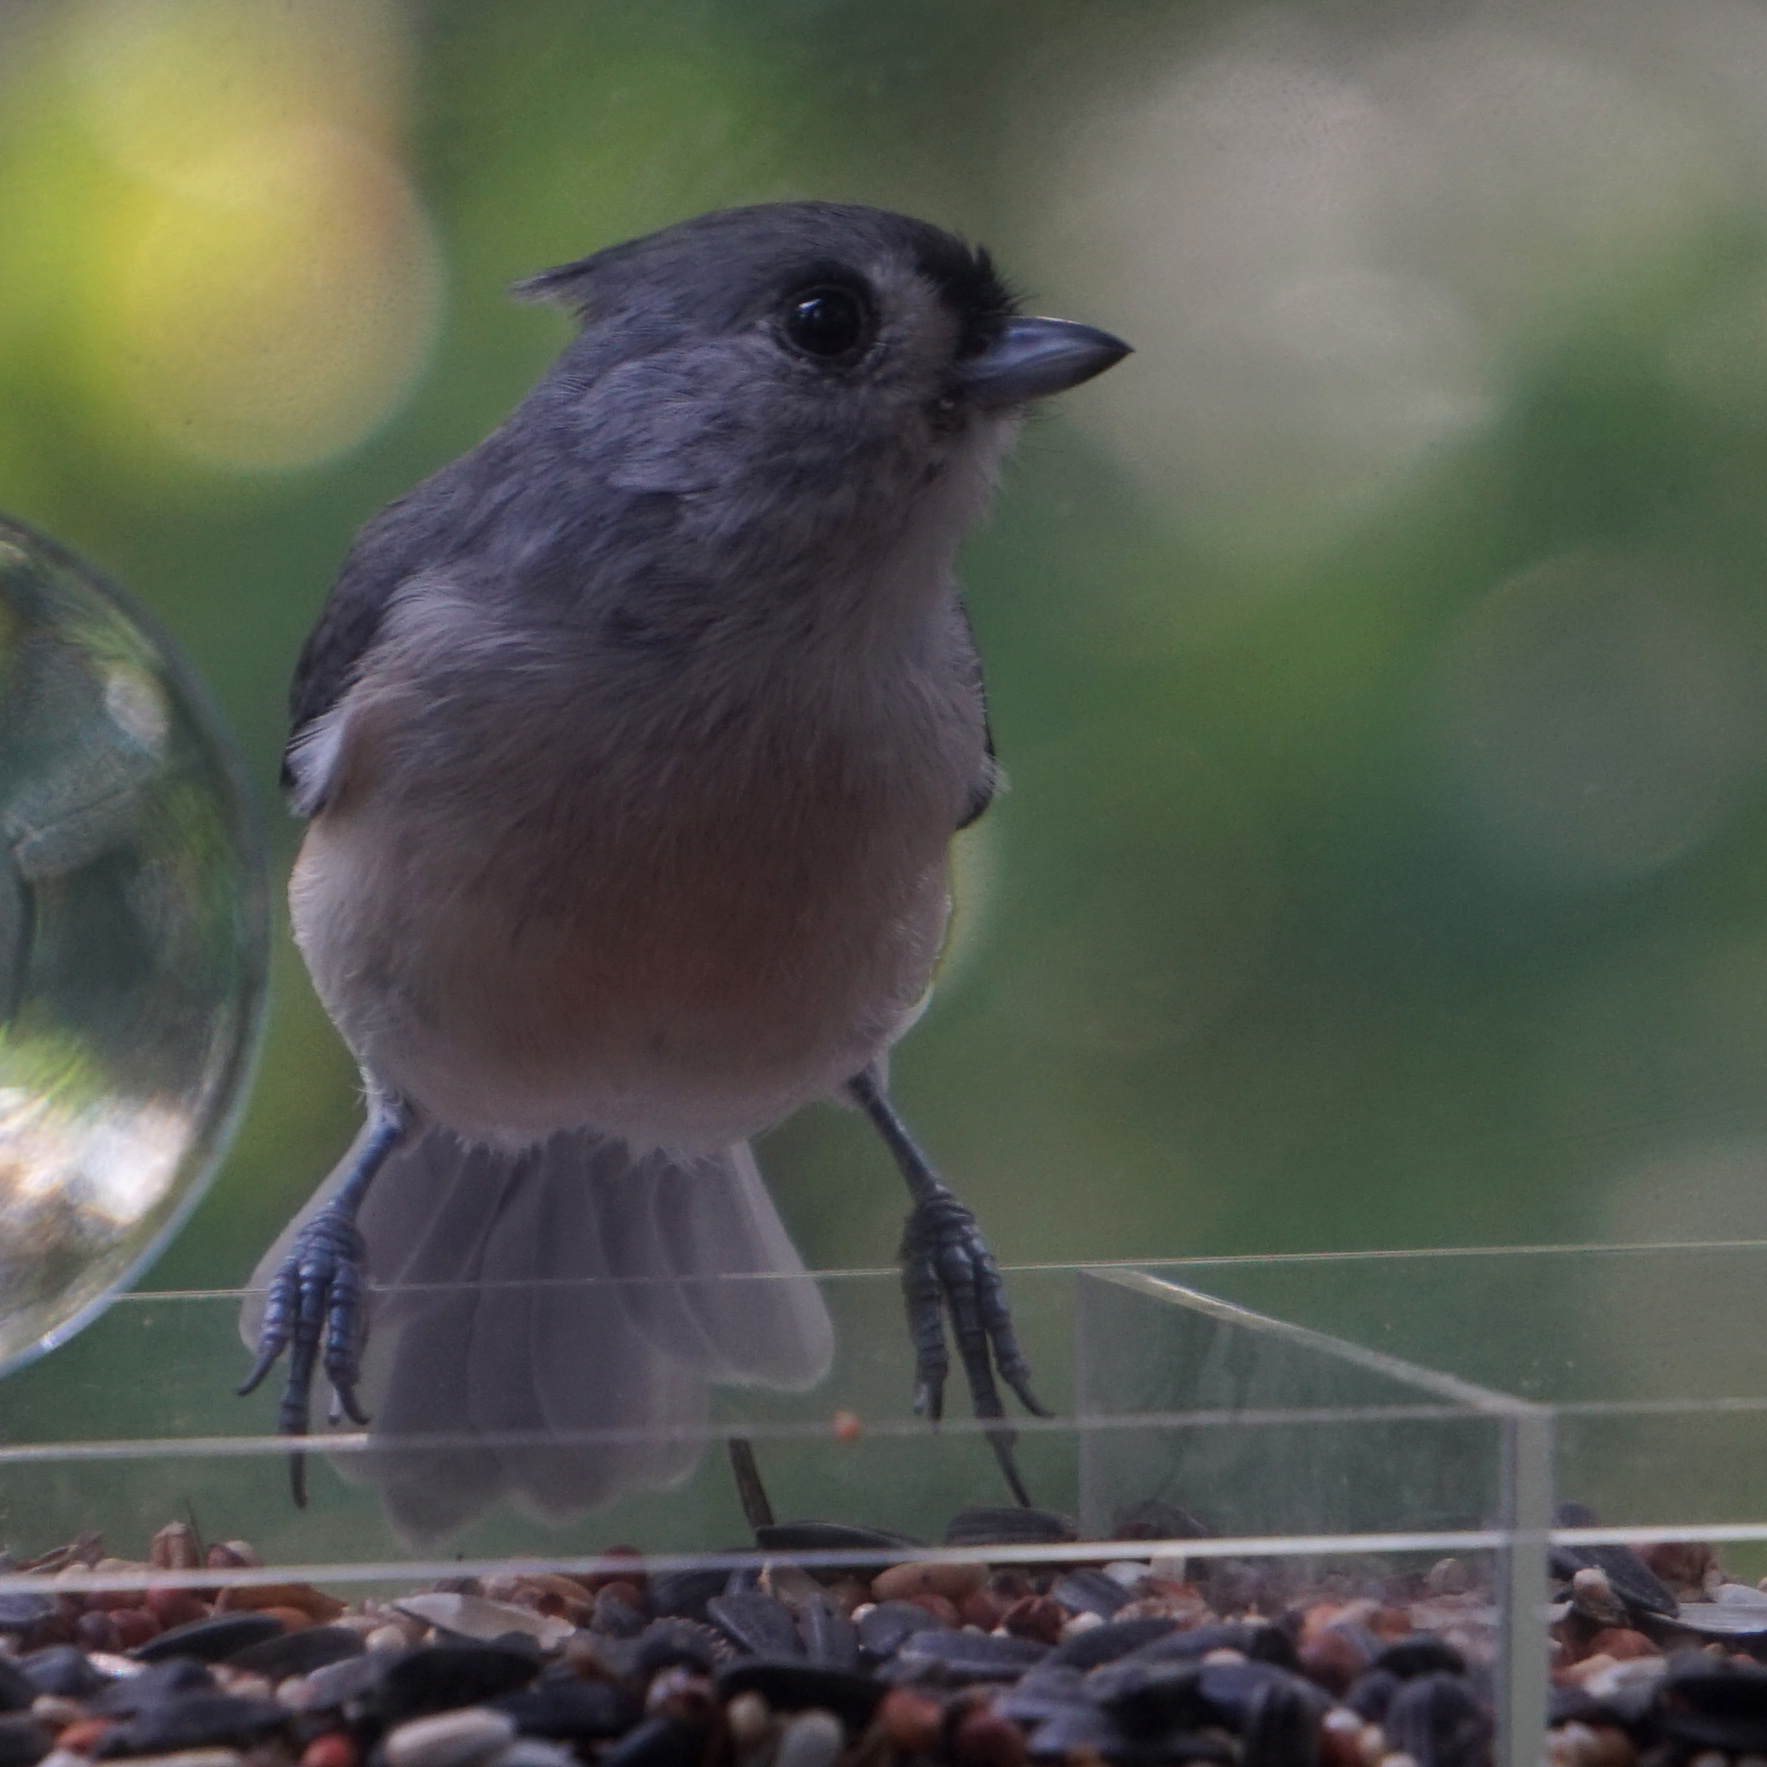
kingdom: Animalia
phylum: Chordata
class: Aves
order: Passeriformes
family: Paridae
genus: Baeolophus
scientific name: Baeolophus bicolor
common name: Tufted titmouse
